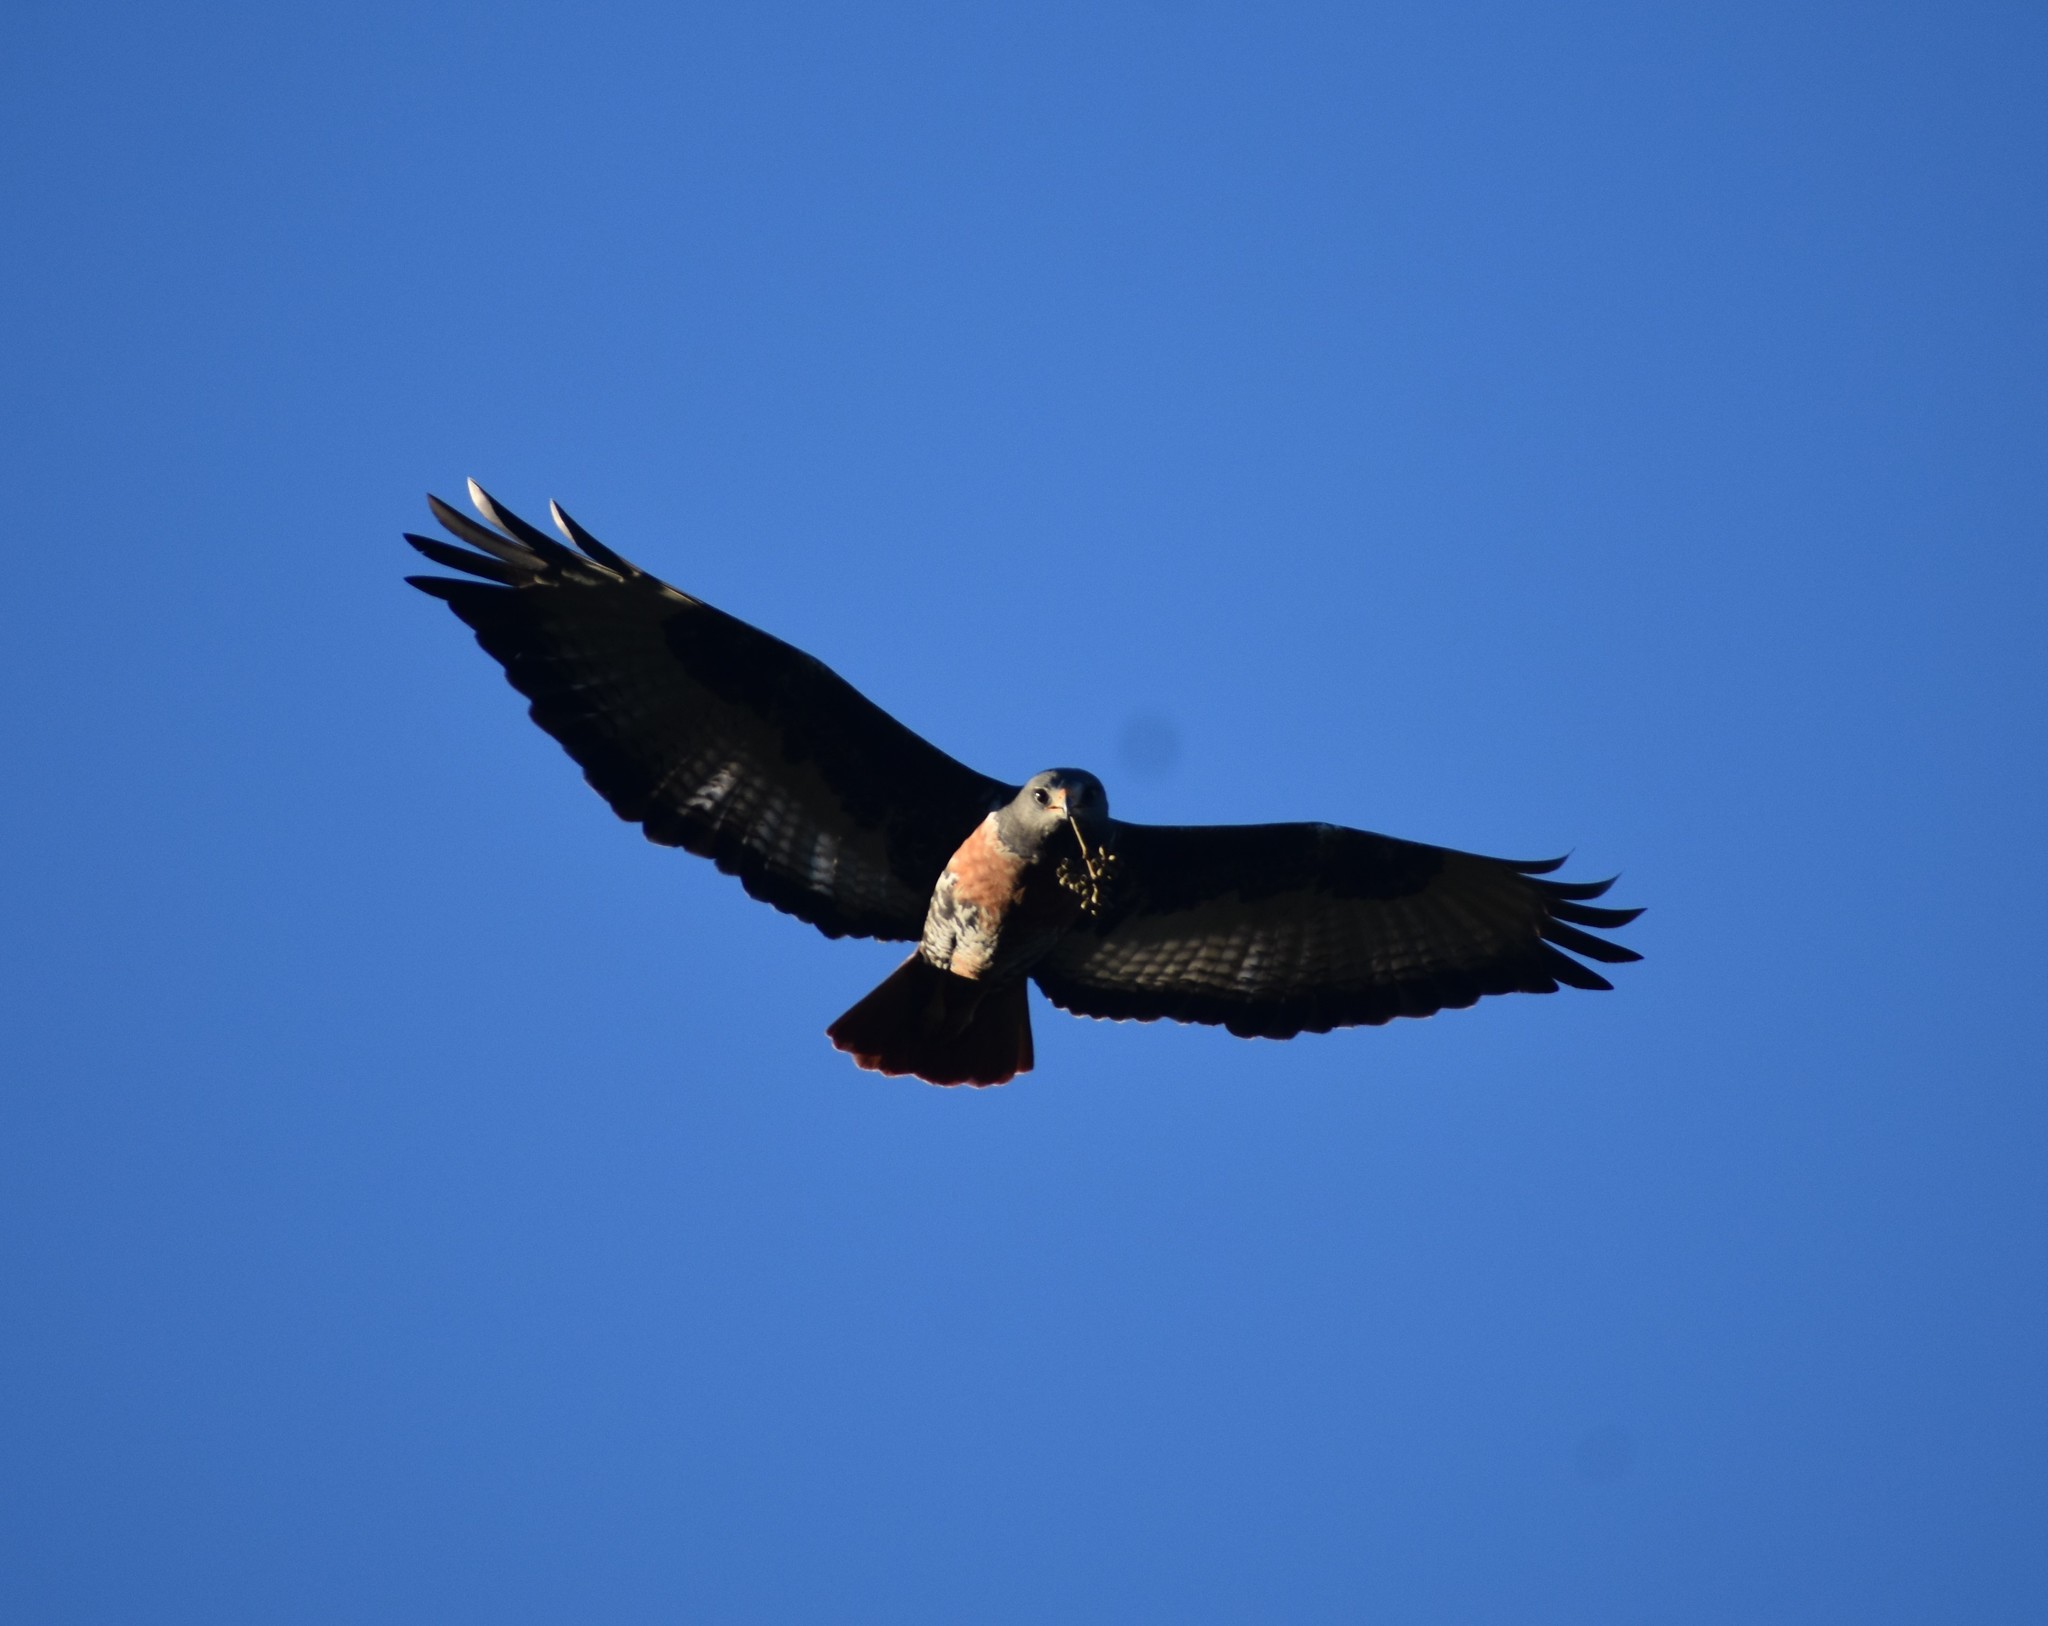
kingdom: Animalia
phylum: Chordata
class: Aves
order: Accipitriformes
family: Accipitridae
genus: Buteo
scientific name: Buteo rufofuscus
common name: Jackal buzzard
